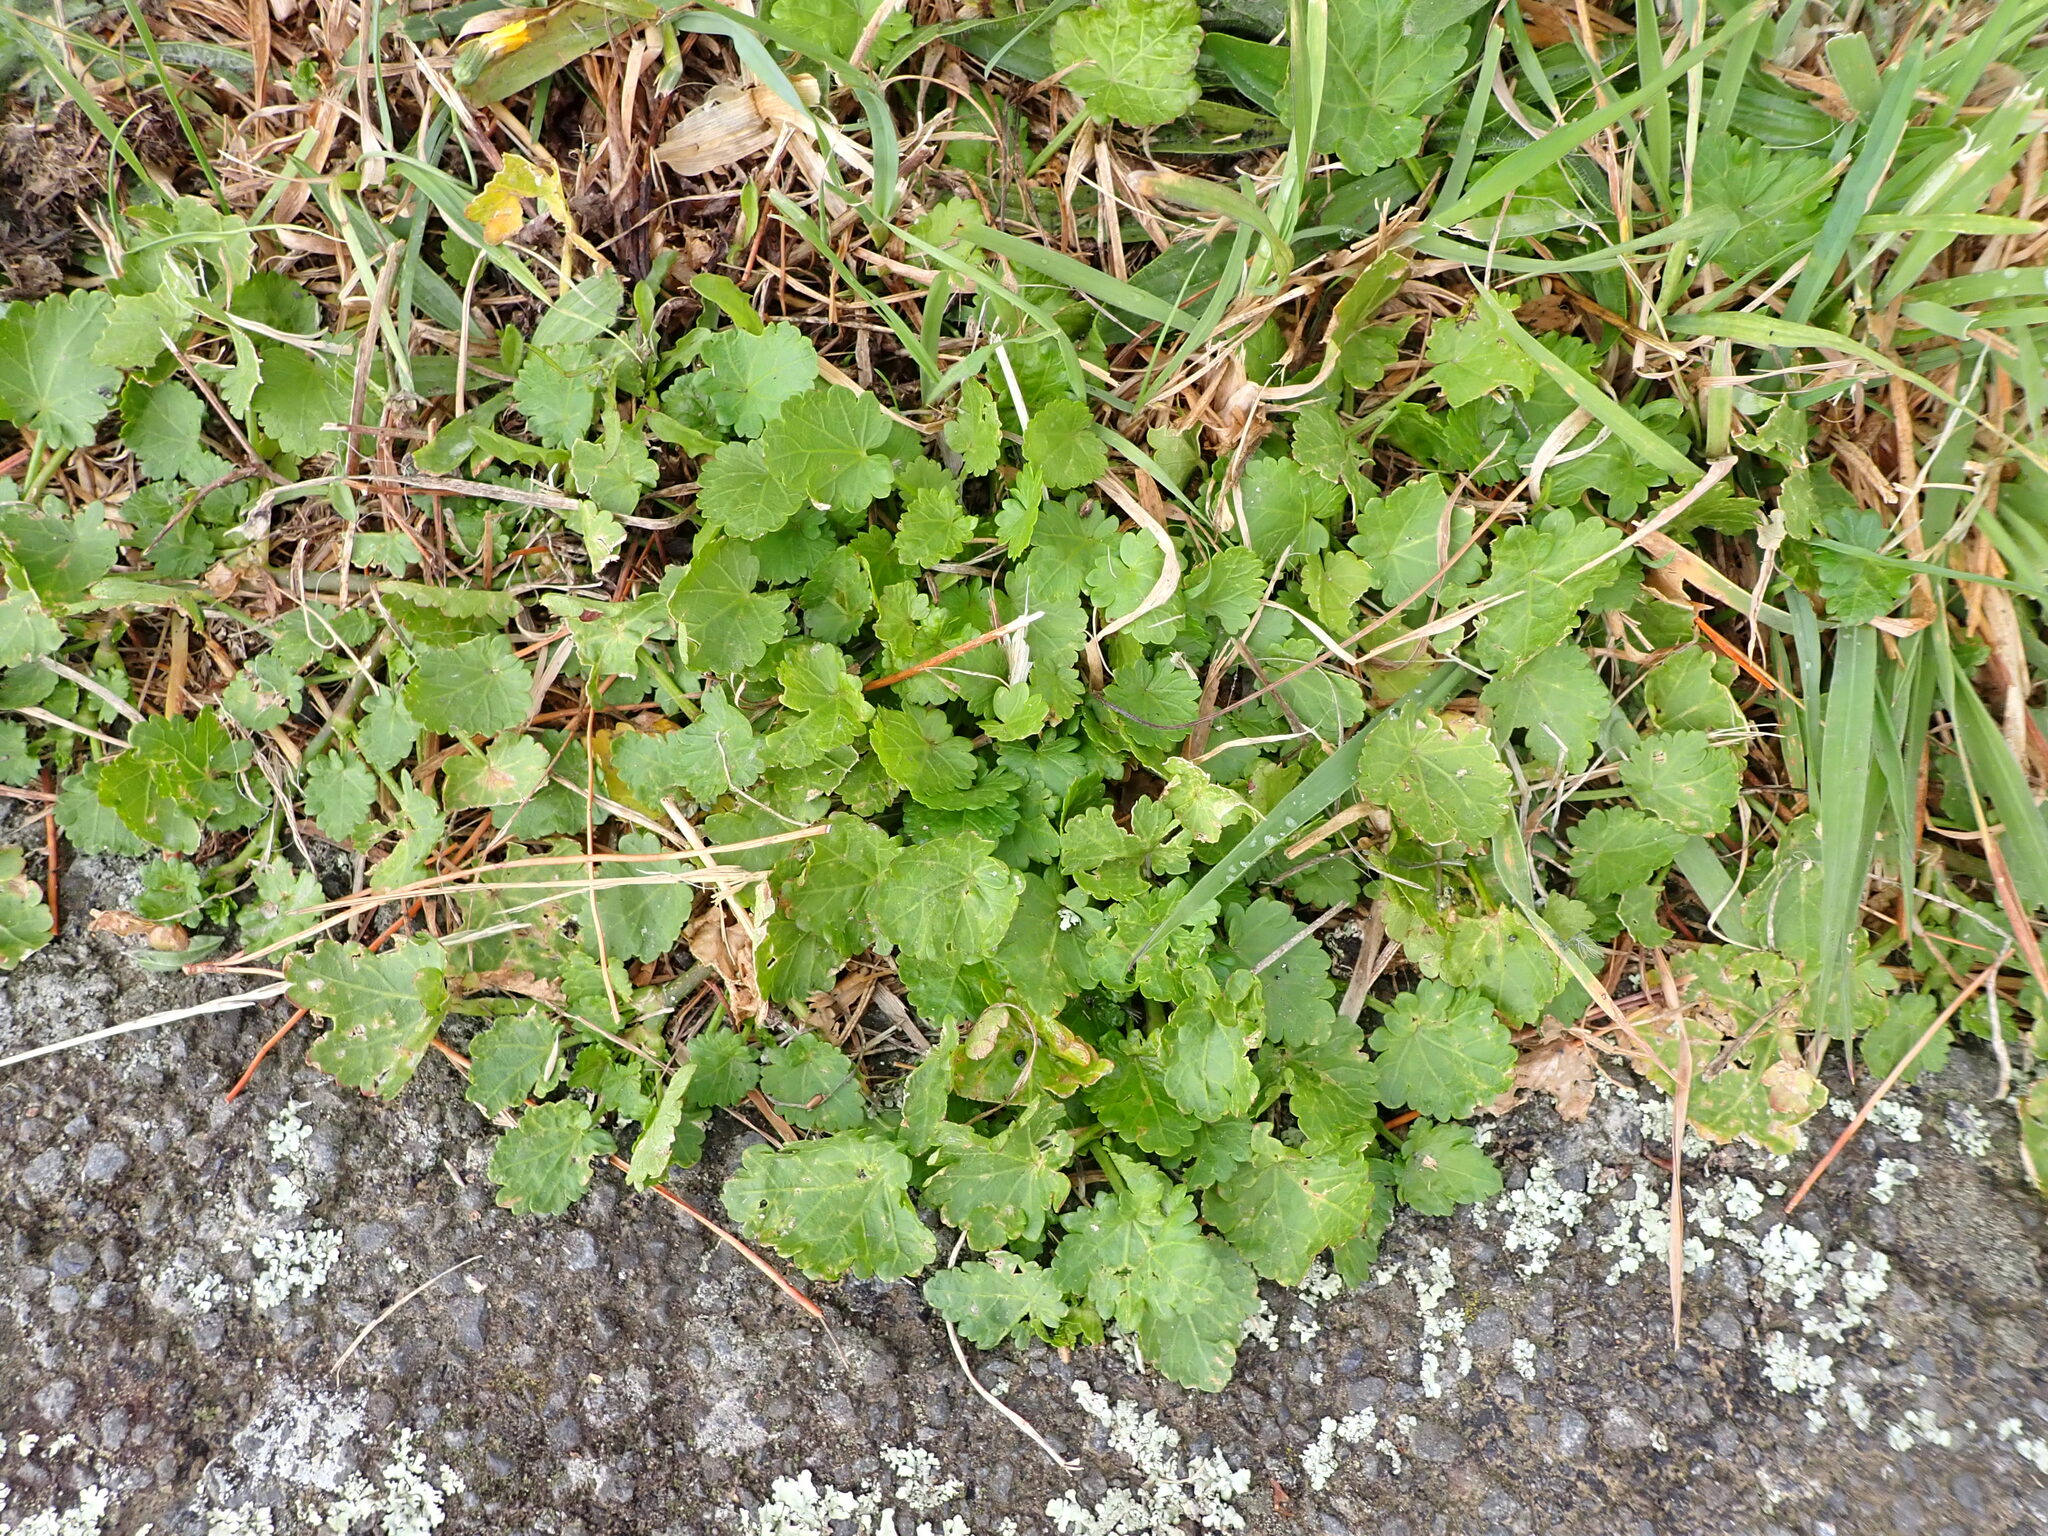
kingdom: Plantae
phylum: Tracheophyta
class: Magnoliopsida
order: Malvales
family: Malvaceae
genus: Modiola
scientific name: Modiola caroliniana
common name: Carolina bristlemallow
